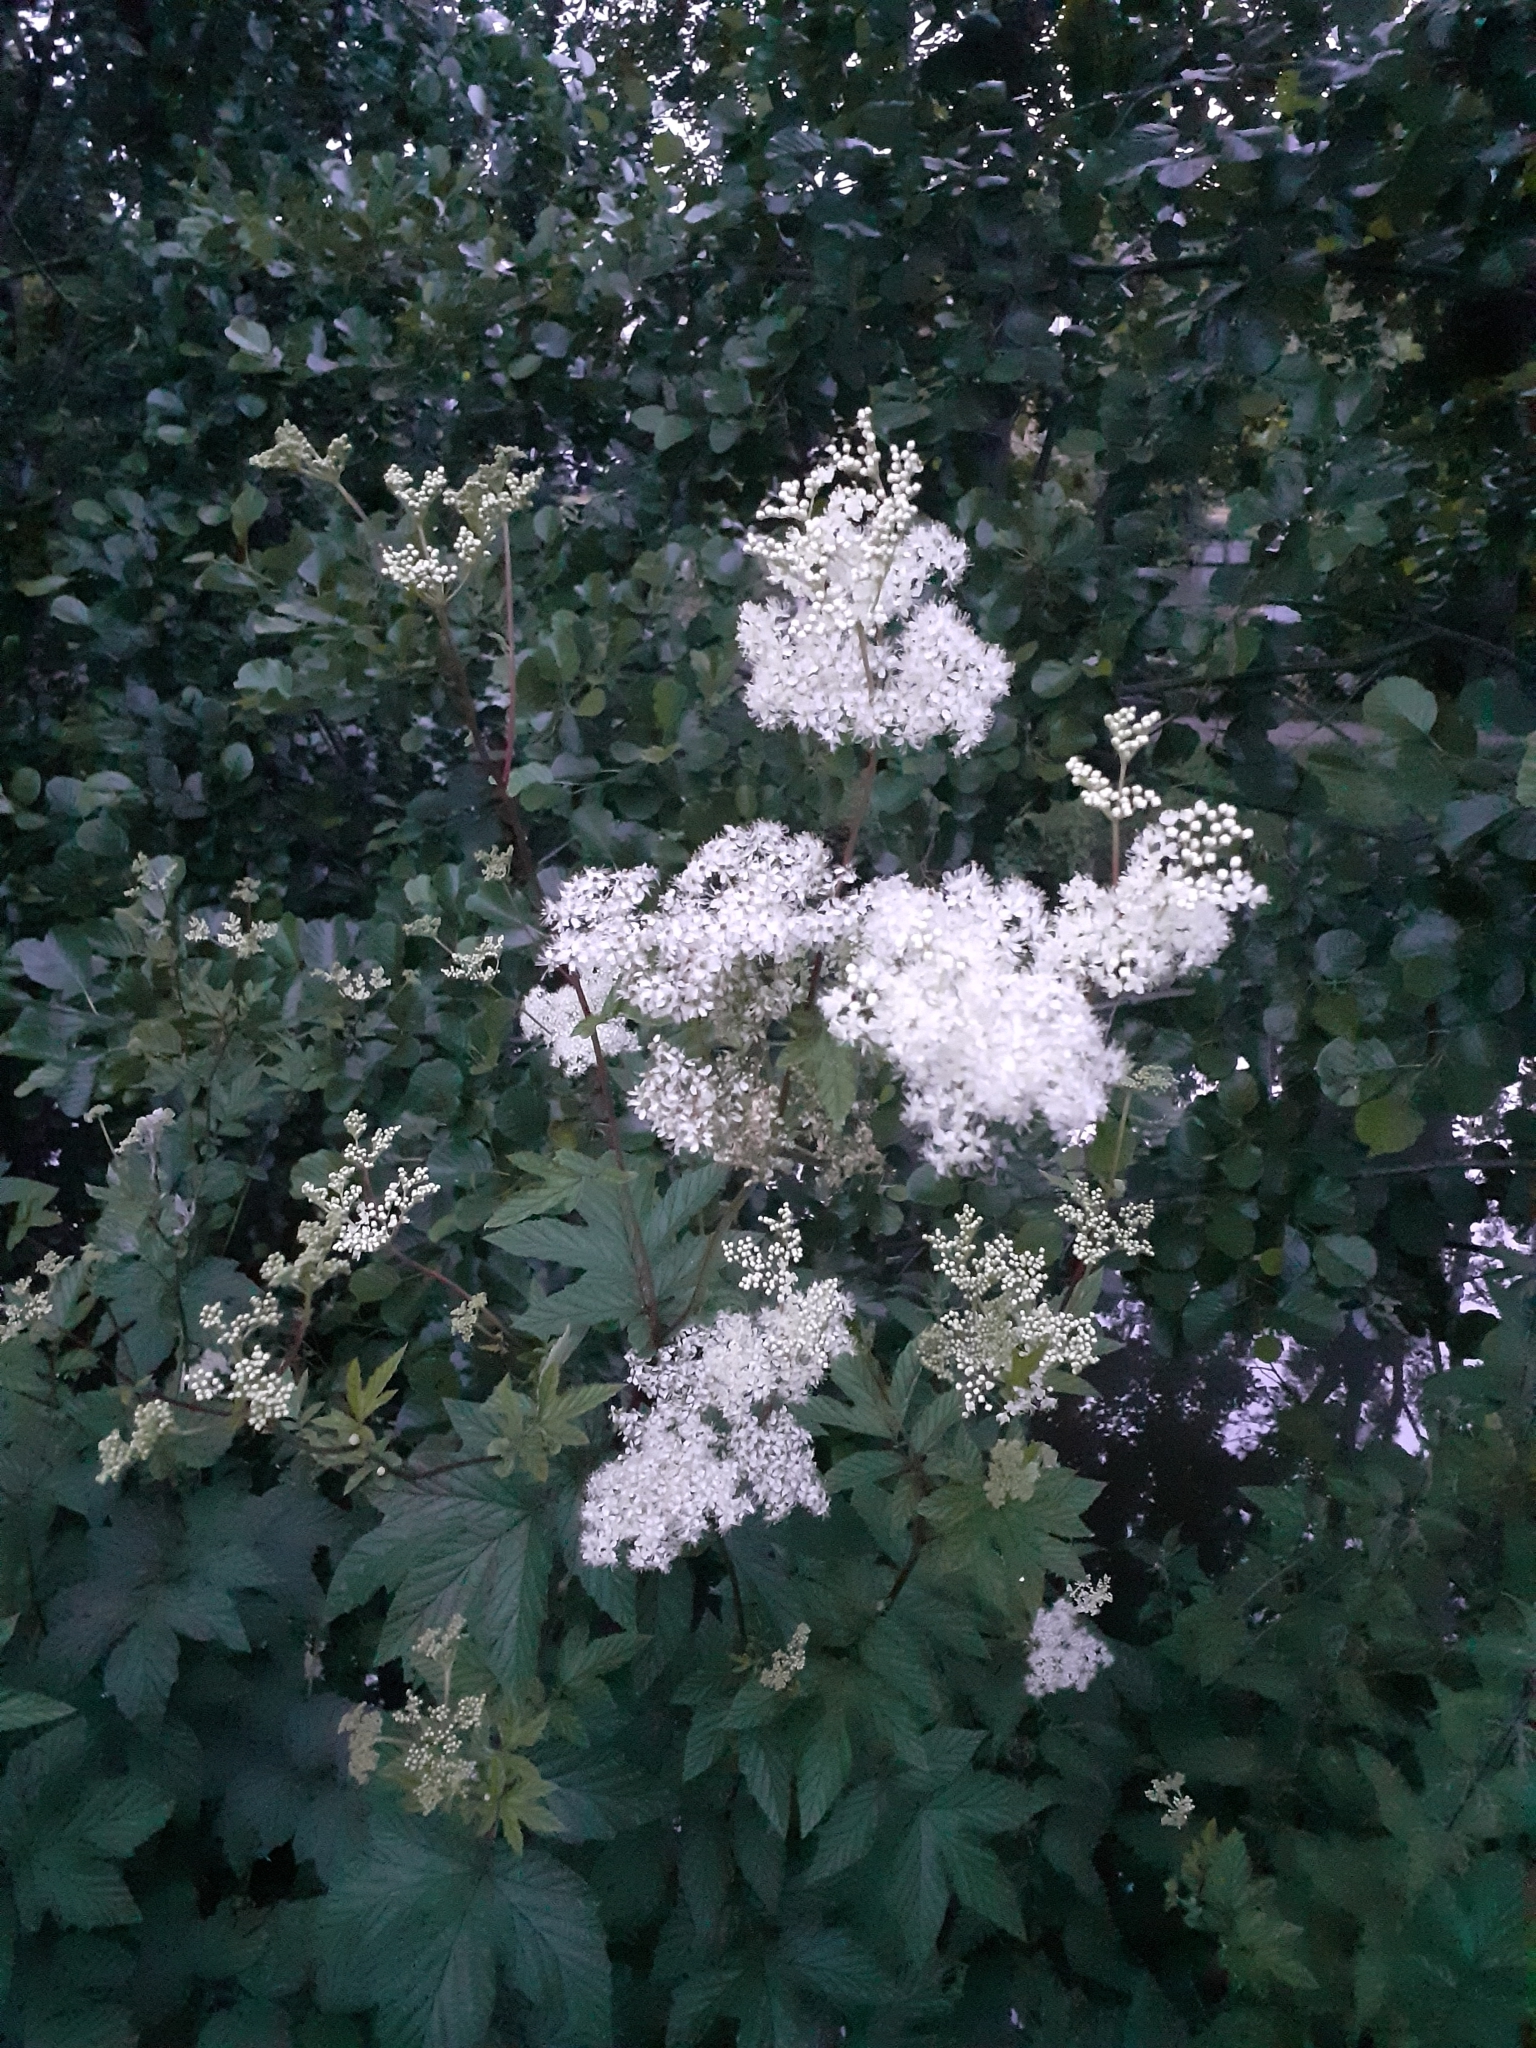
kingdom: Plantae
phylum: Tracheophyta
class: Magnoliopsida
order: Rosales
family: Rosaceae
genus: Filipendula
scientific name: Filipendula ulmaria
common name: Meadowsweet
